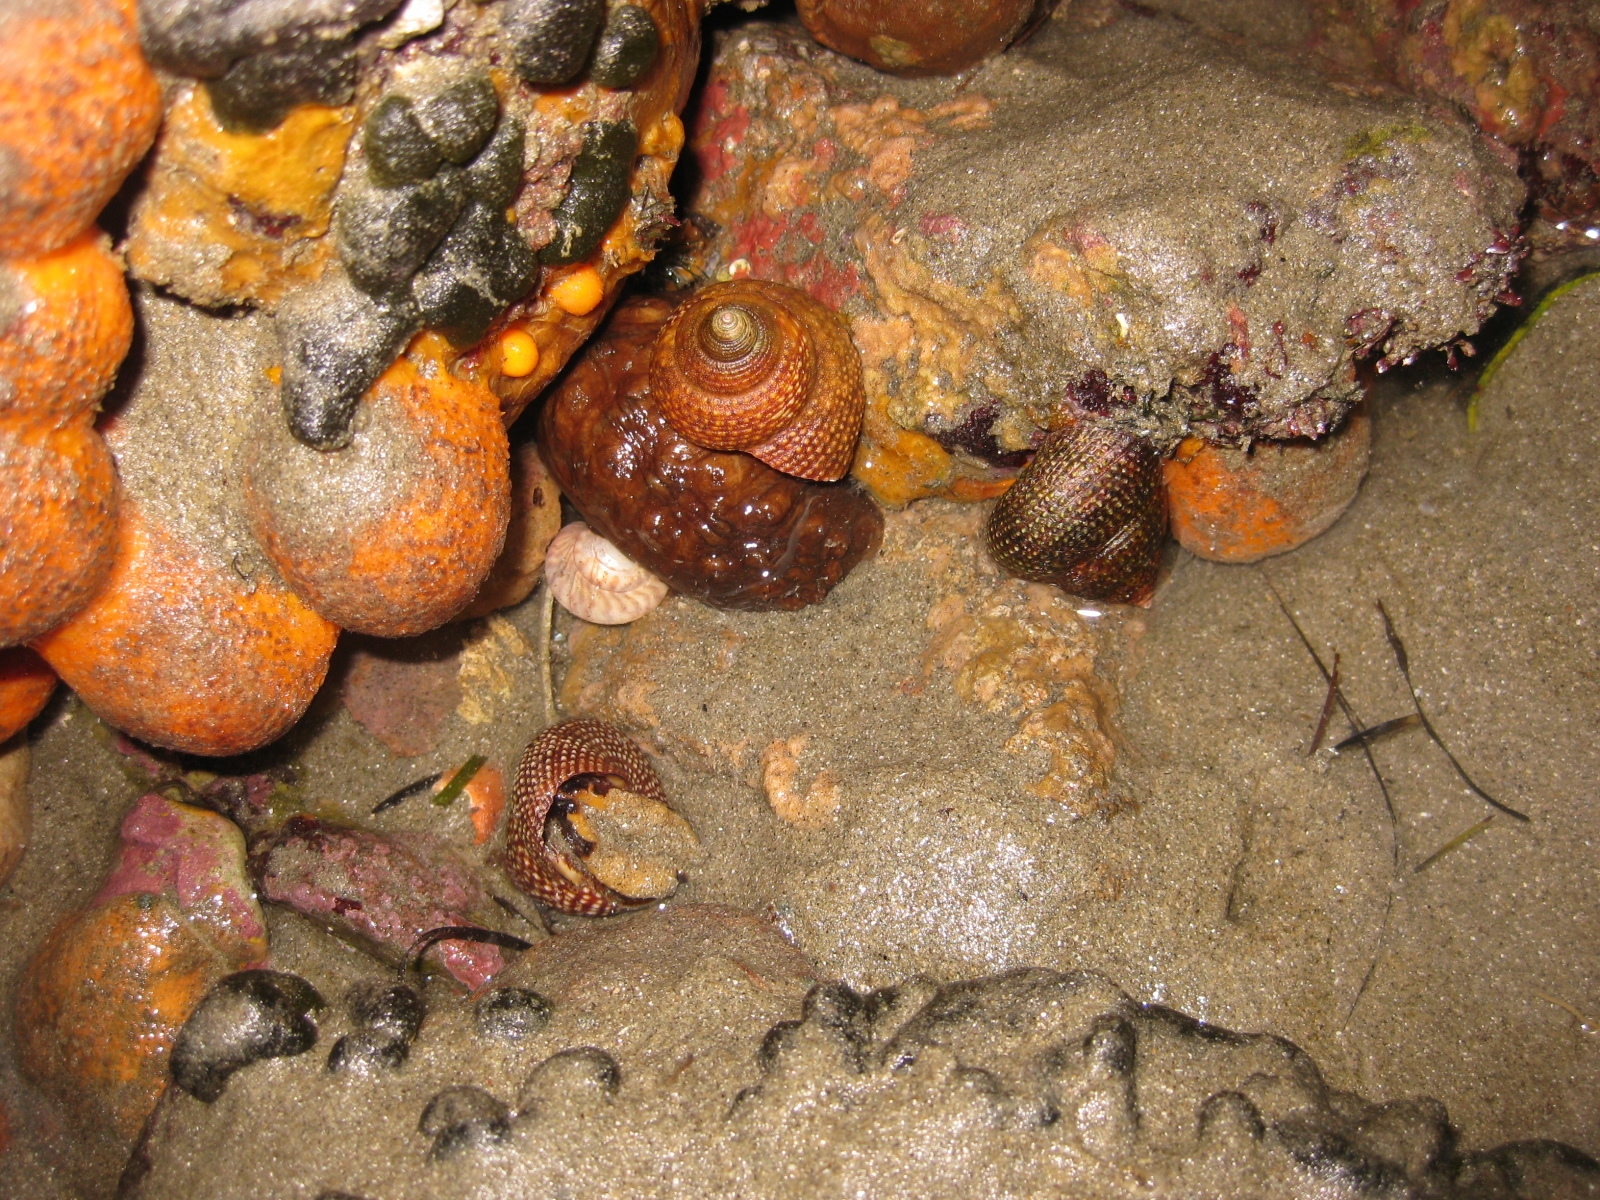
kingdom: Animalia
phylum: Mollusca
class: Gastropoda
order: Trochida
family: Calliostomatidae
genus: Maurea
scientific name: Maurea punctulata
